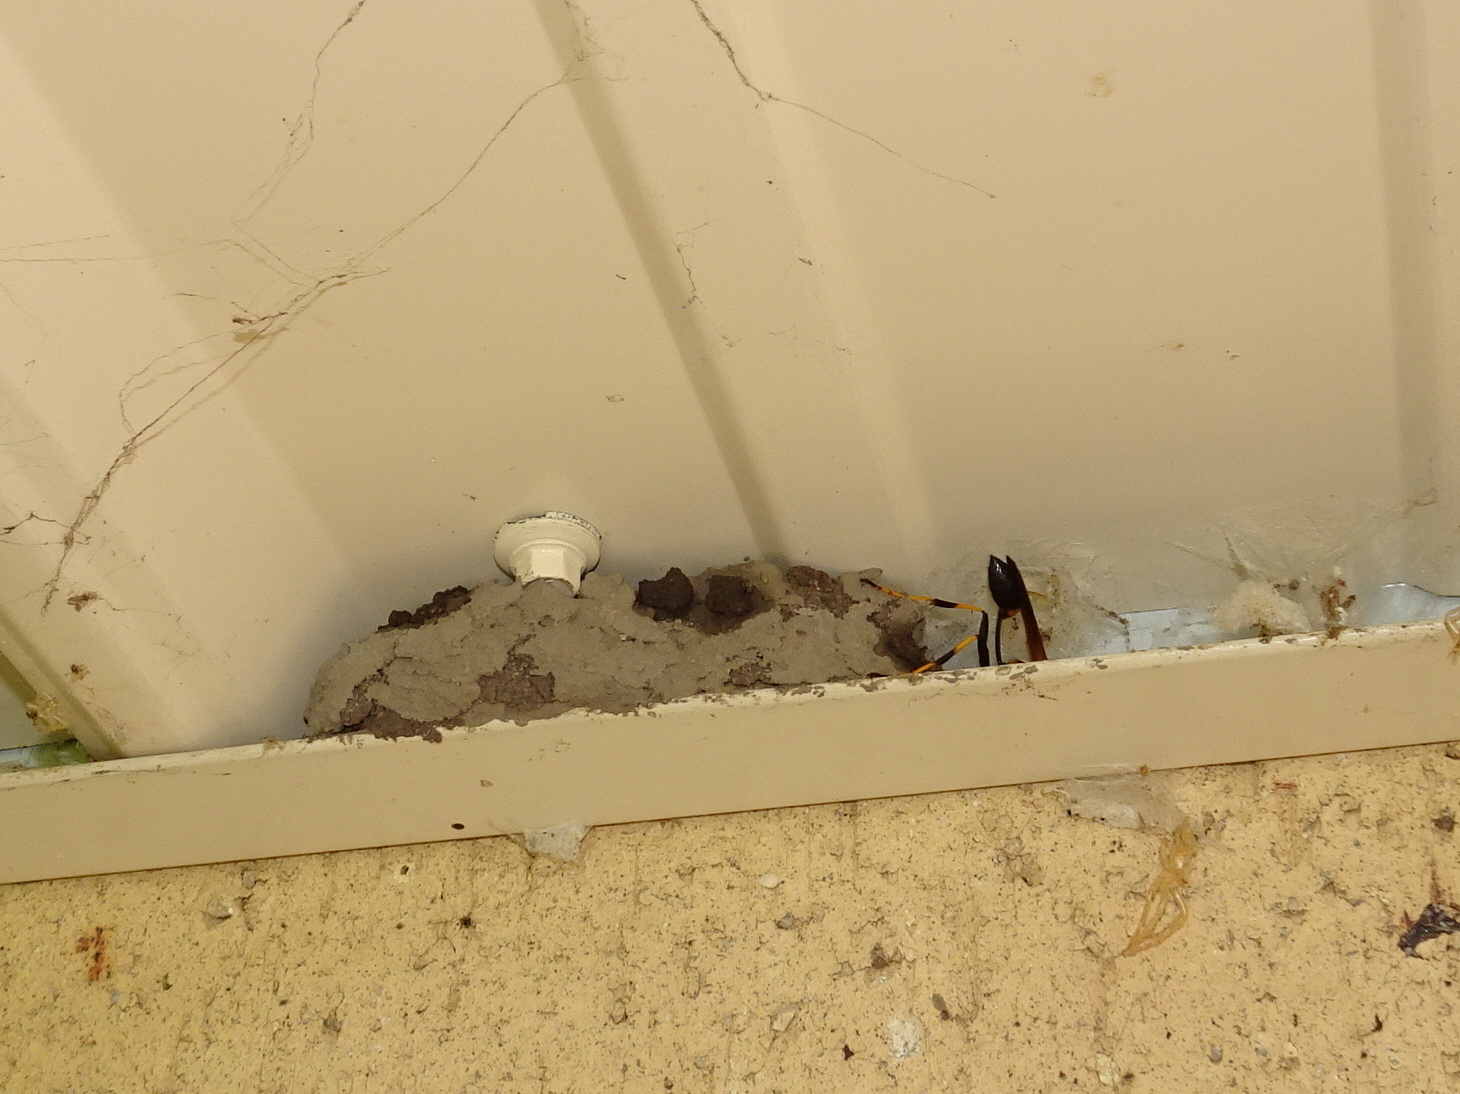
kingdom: Animalia
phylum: Arthropoda
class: Insecta
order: Hymenoptera
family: Sphecidae
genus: Sceliphron
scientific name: Sceliphron caementarium
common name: Mud dauber
